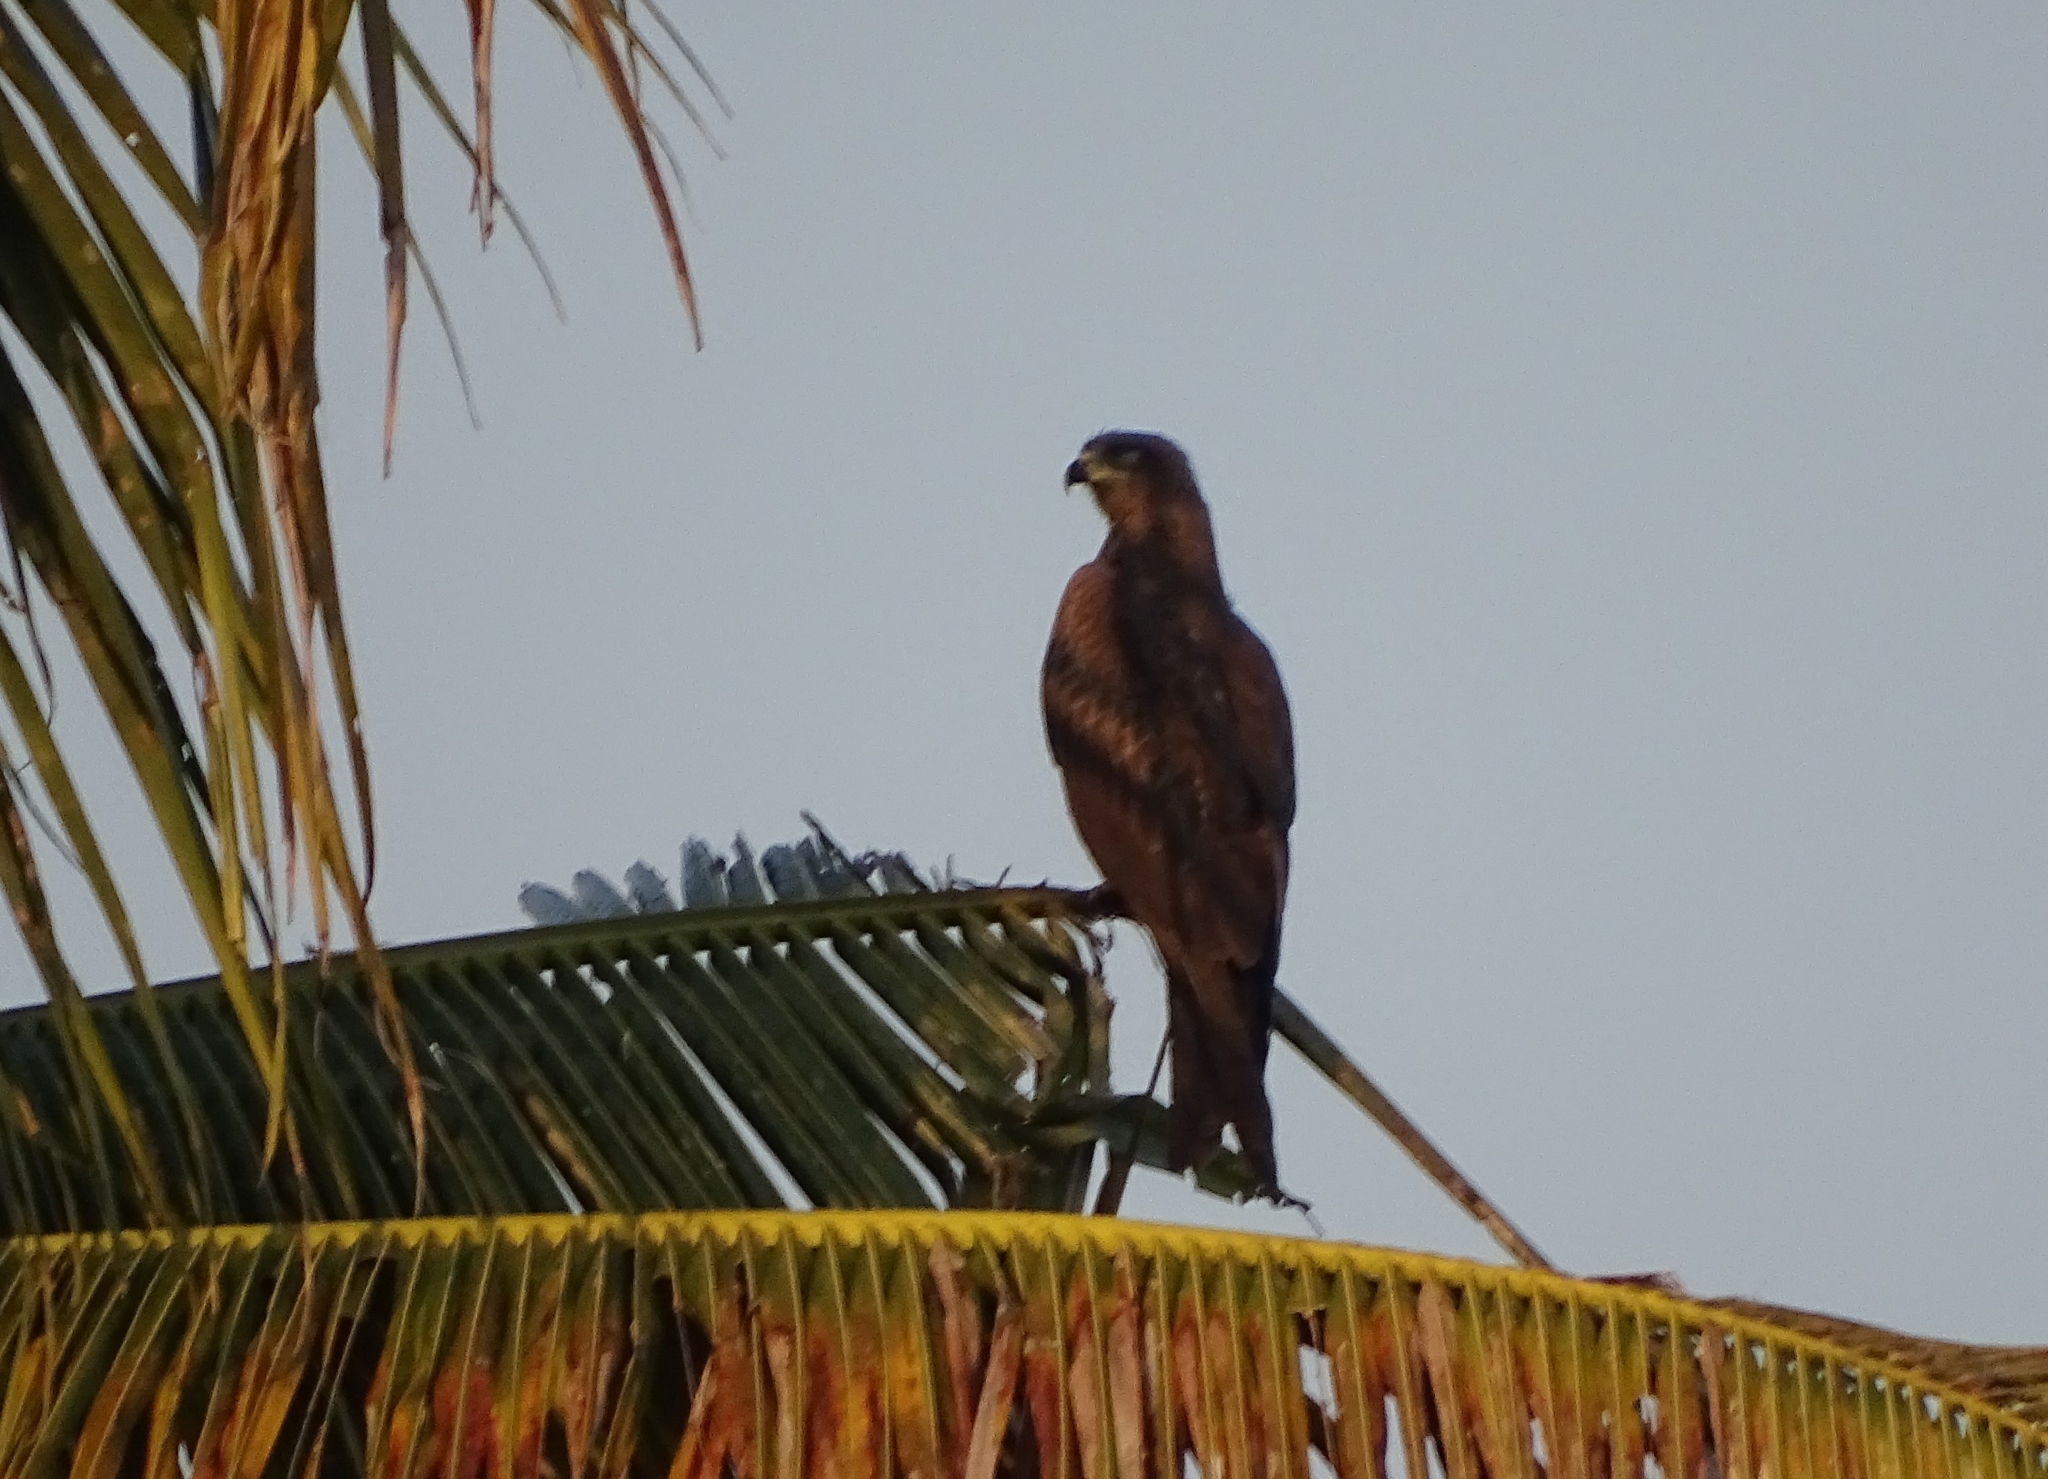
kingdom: Animalia
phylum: Chordata
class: Aves
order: Accipitriformes
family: Accipitridae
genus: Milvus
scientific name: Milvus migrans
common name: Black kite
